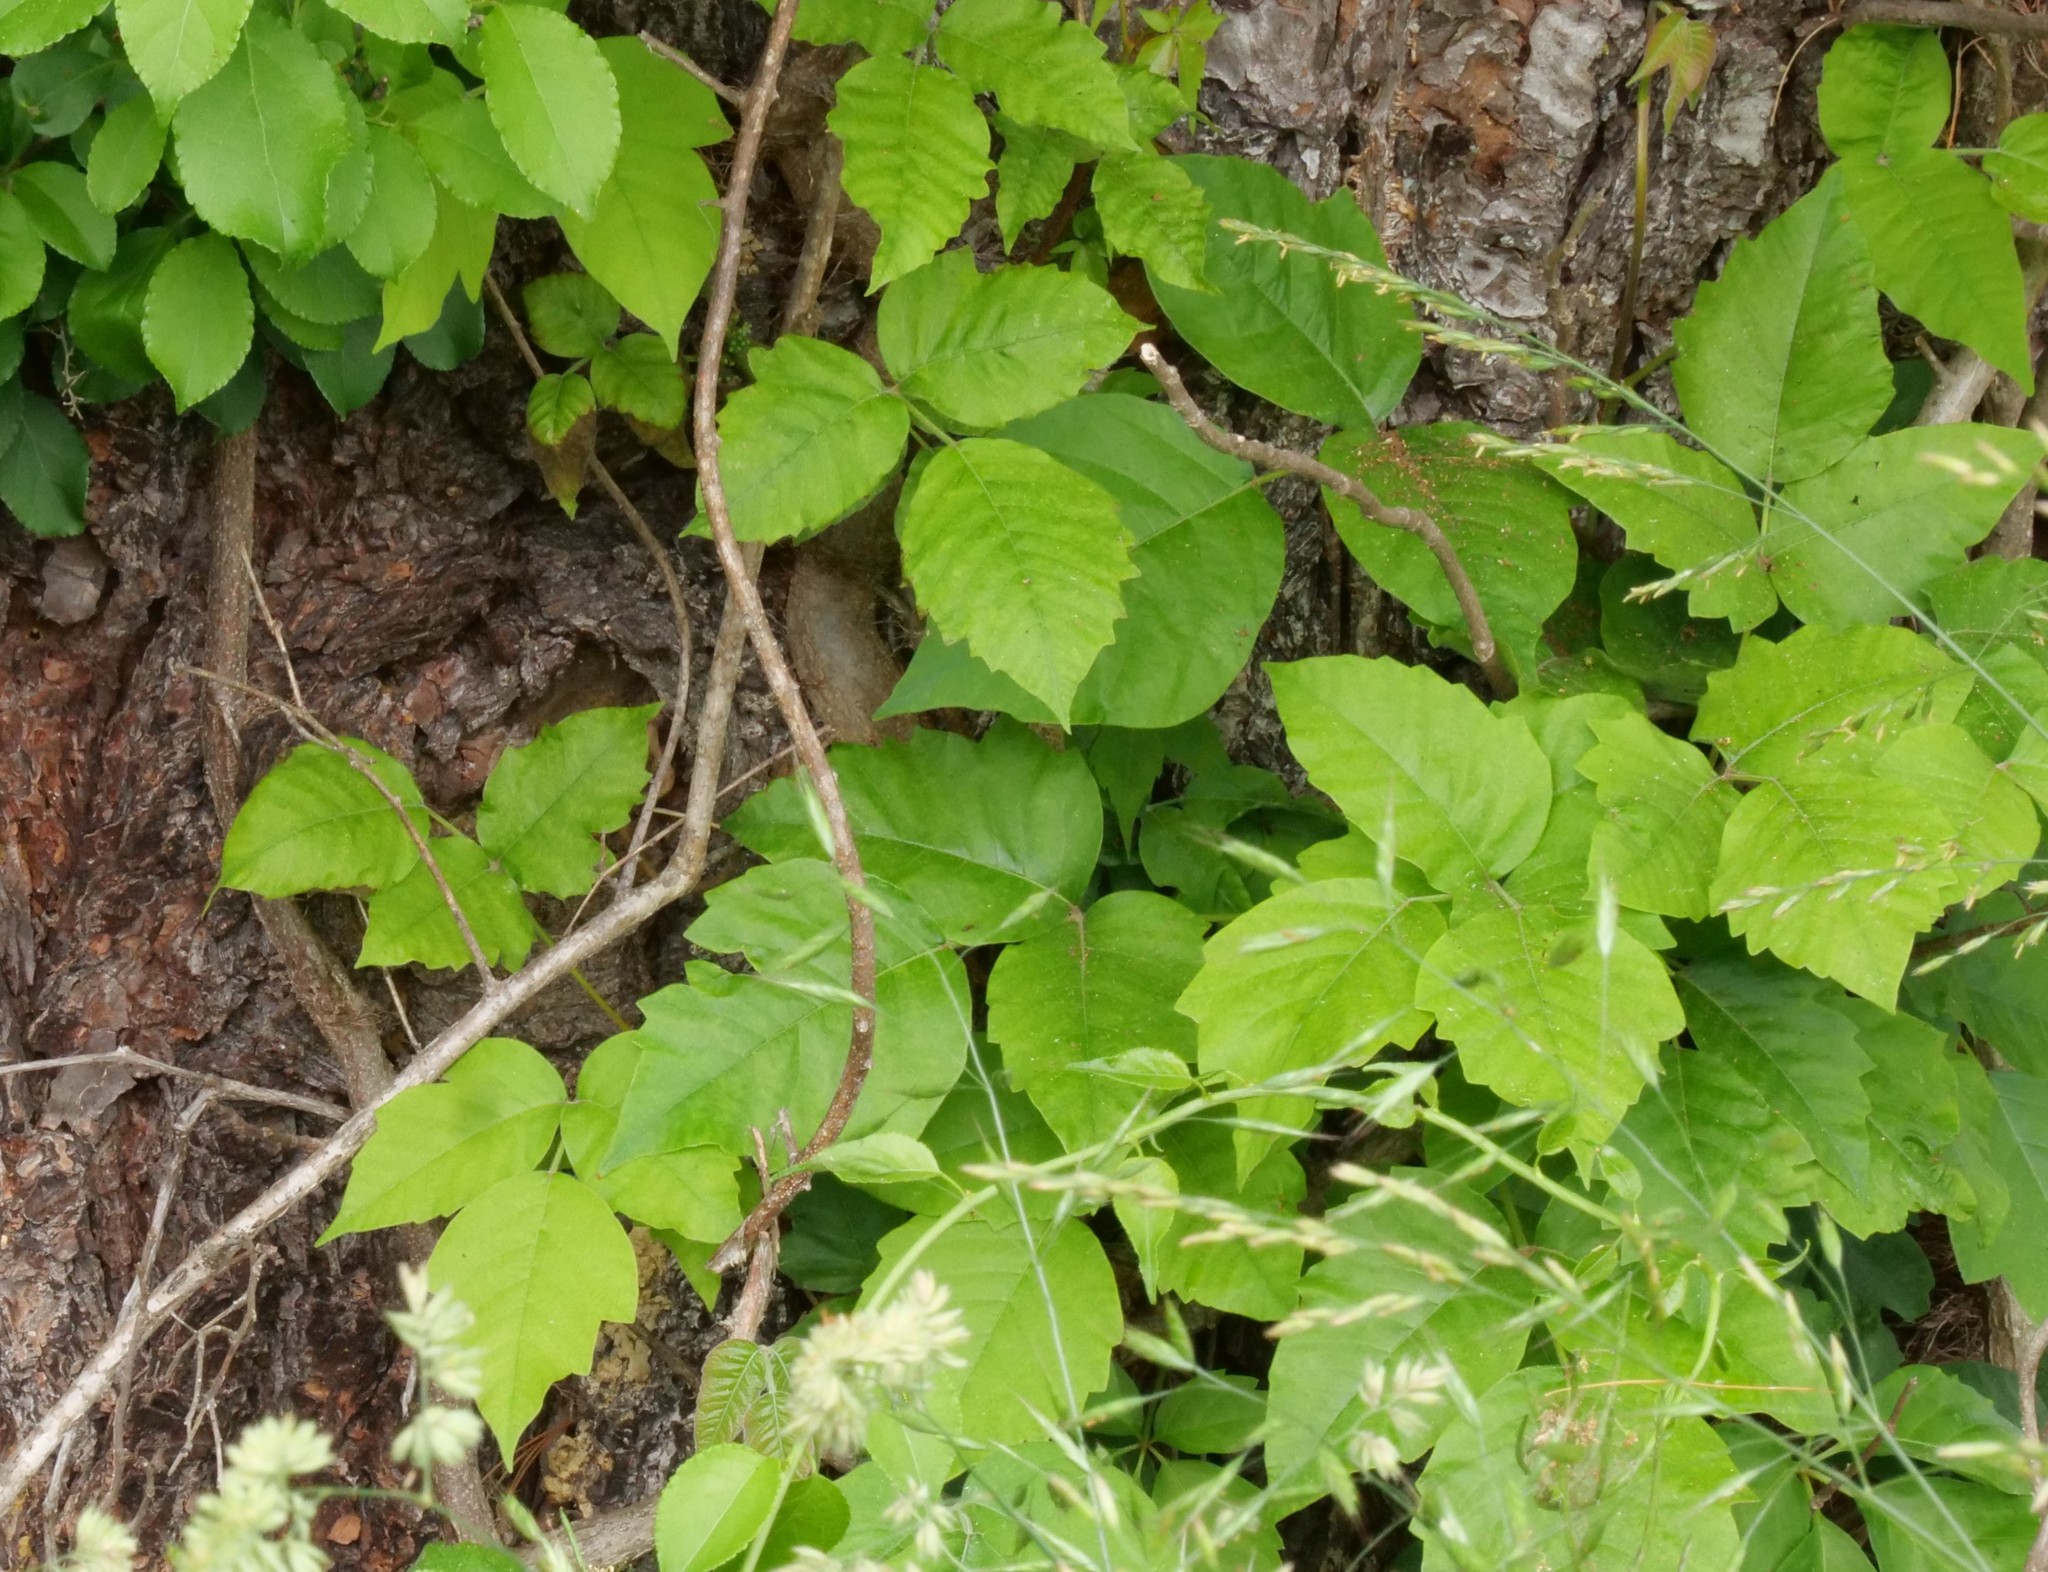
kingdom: Plantae
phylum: Tracheophyta
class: Magnoliopsida
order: Sapindales
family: Anacardiaceae
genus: Toxicodendron
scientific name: Toxicodendron radicans
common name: Poison ivy
